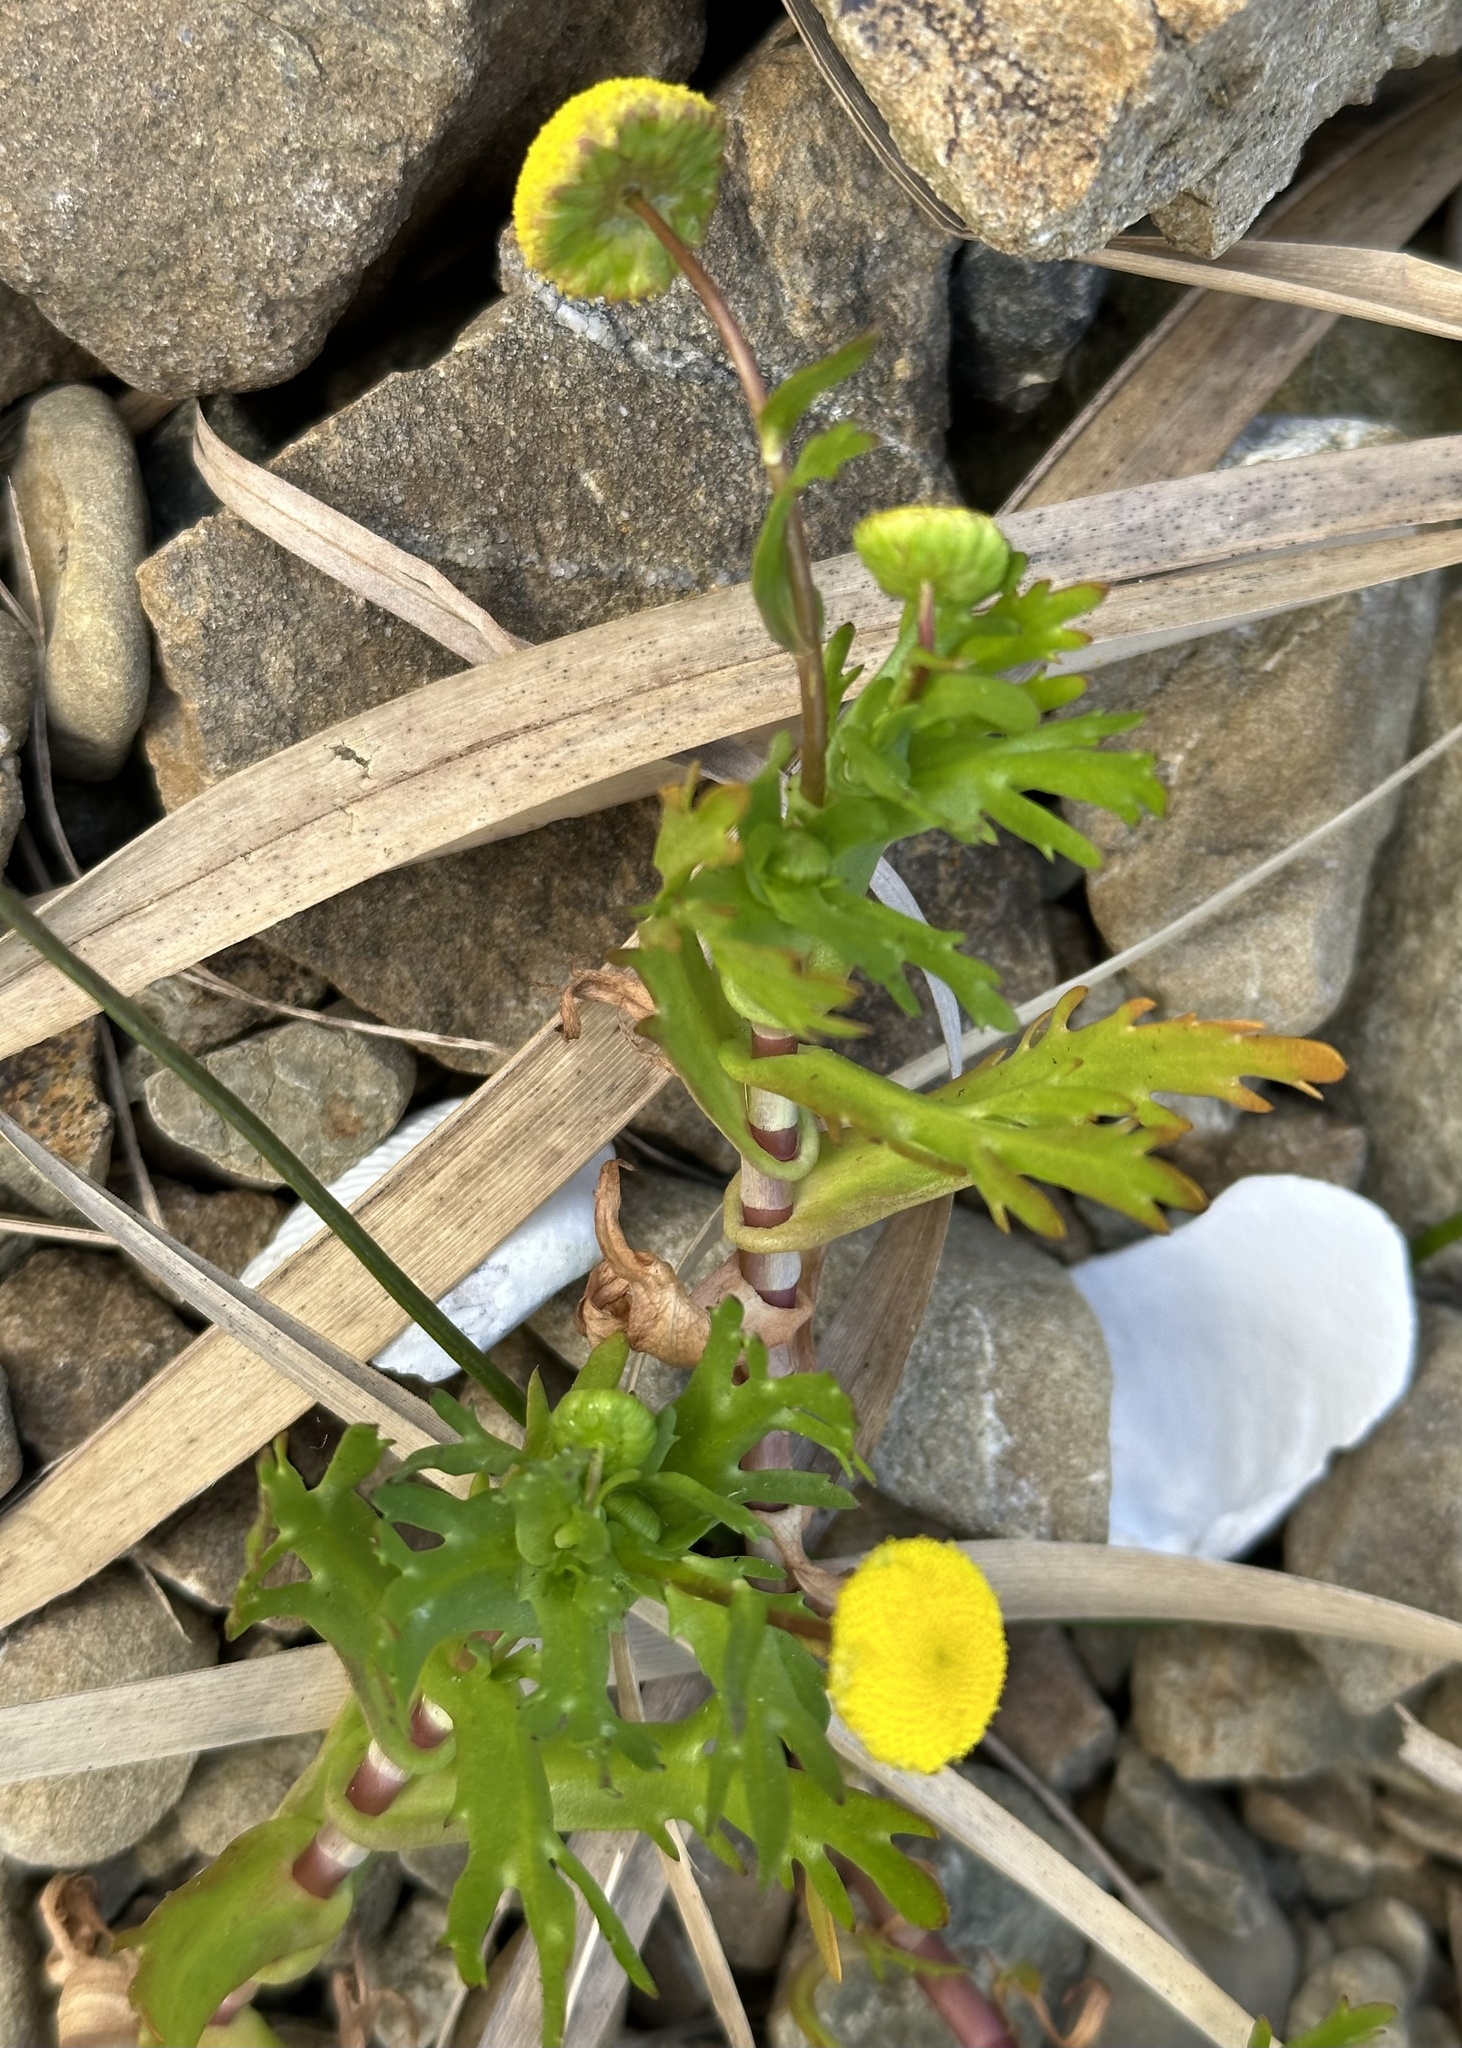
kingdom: Plantae
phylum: Tracheophyta
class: Magnoliopsida
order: Asterales
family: Asteraceae
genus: Cotula
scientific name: Cotula coronopifolia
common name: Buttonweed
